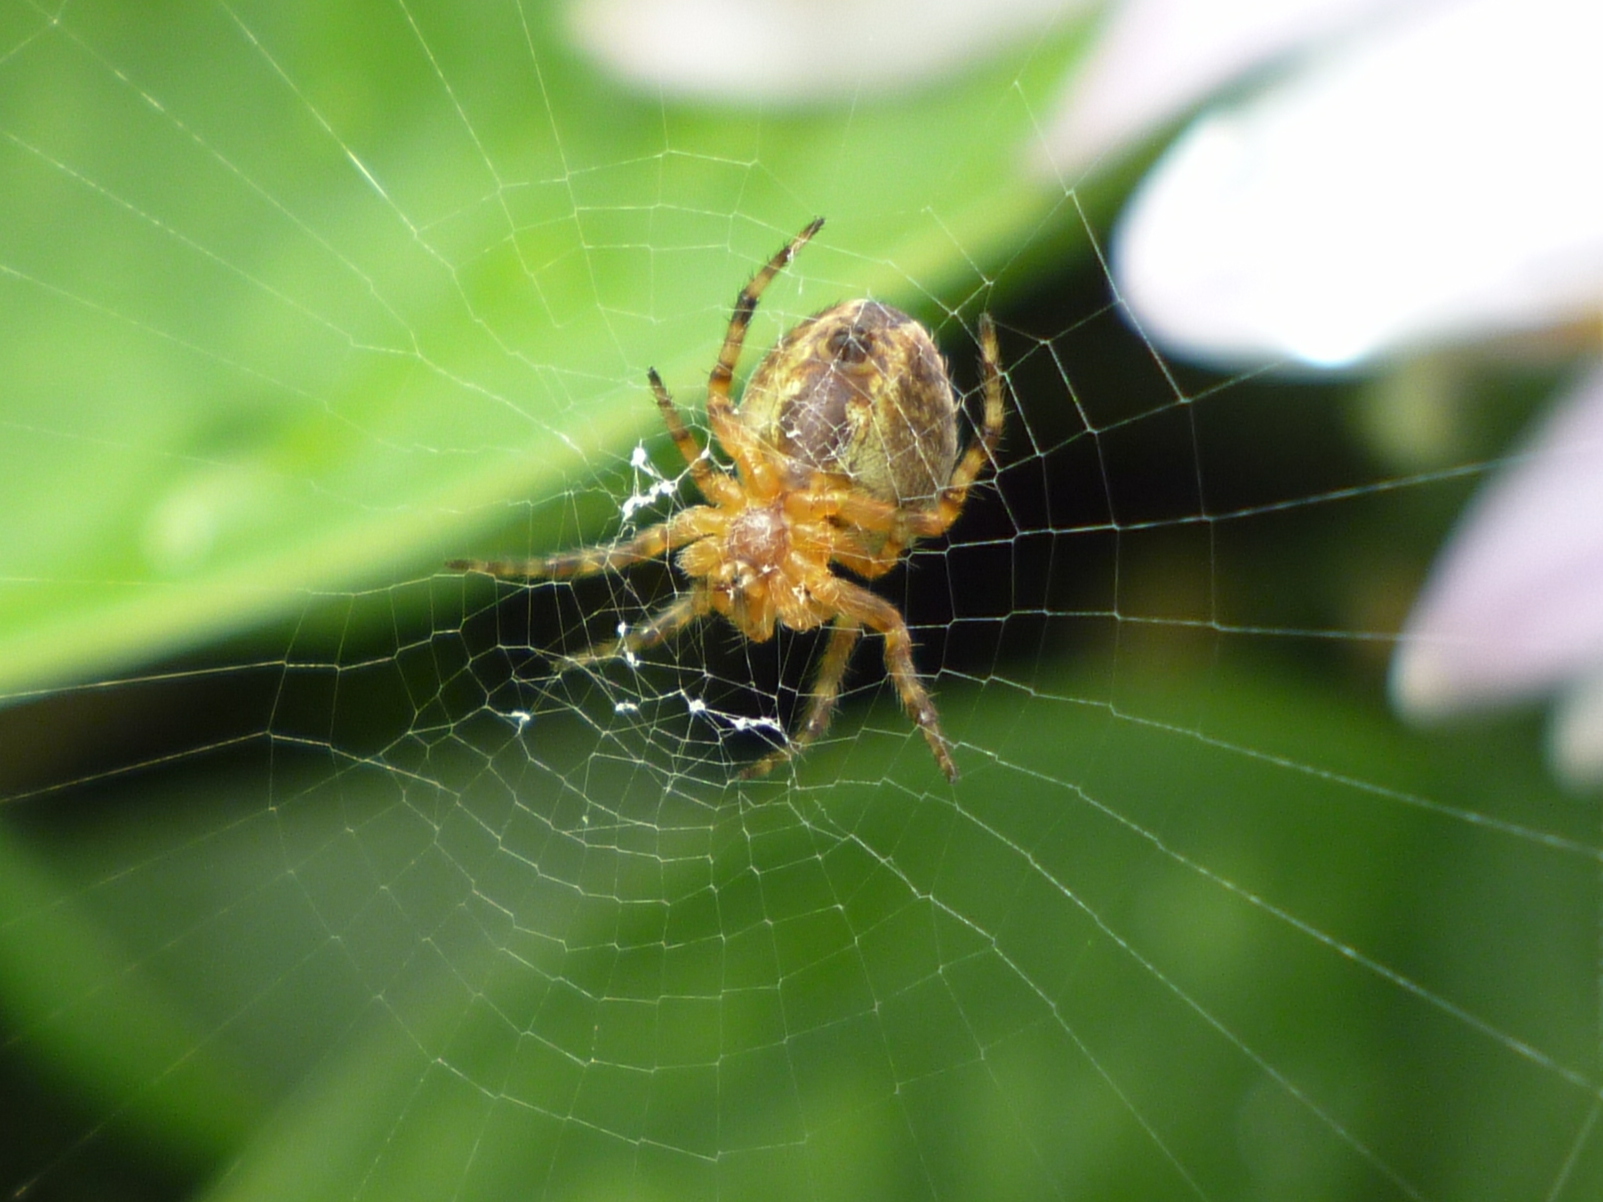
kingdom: Animalia
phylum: Arthropoda
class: Arachnida
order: Araneae
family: Araneidae
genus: Araneus
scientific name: Araneus diadematus
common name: Cross orbweaver
